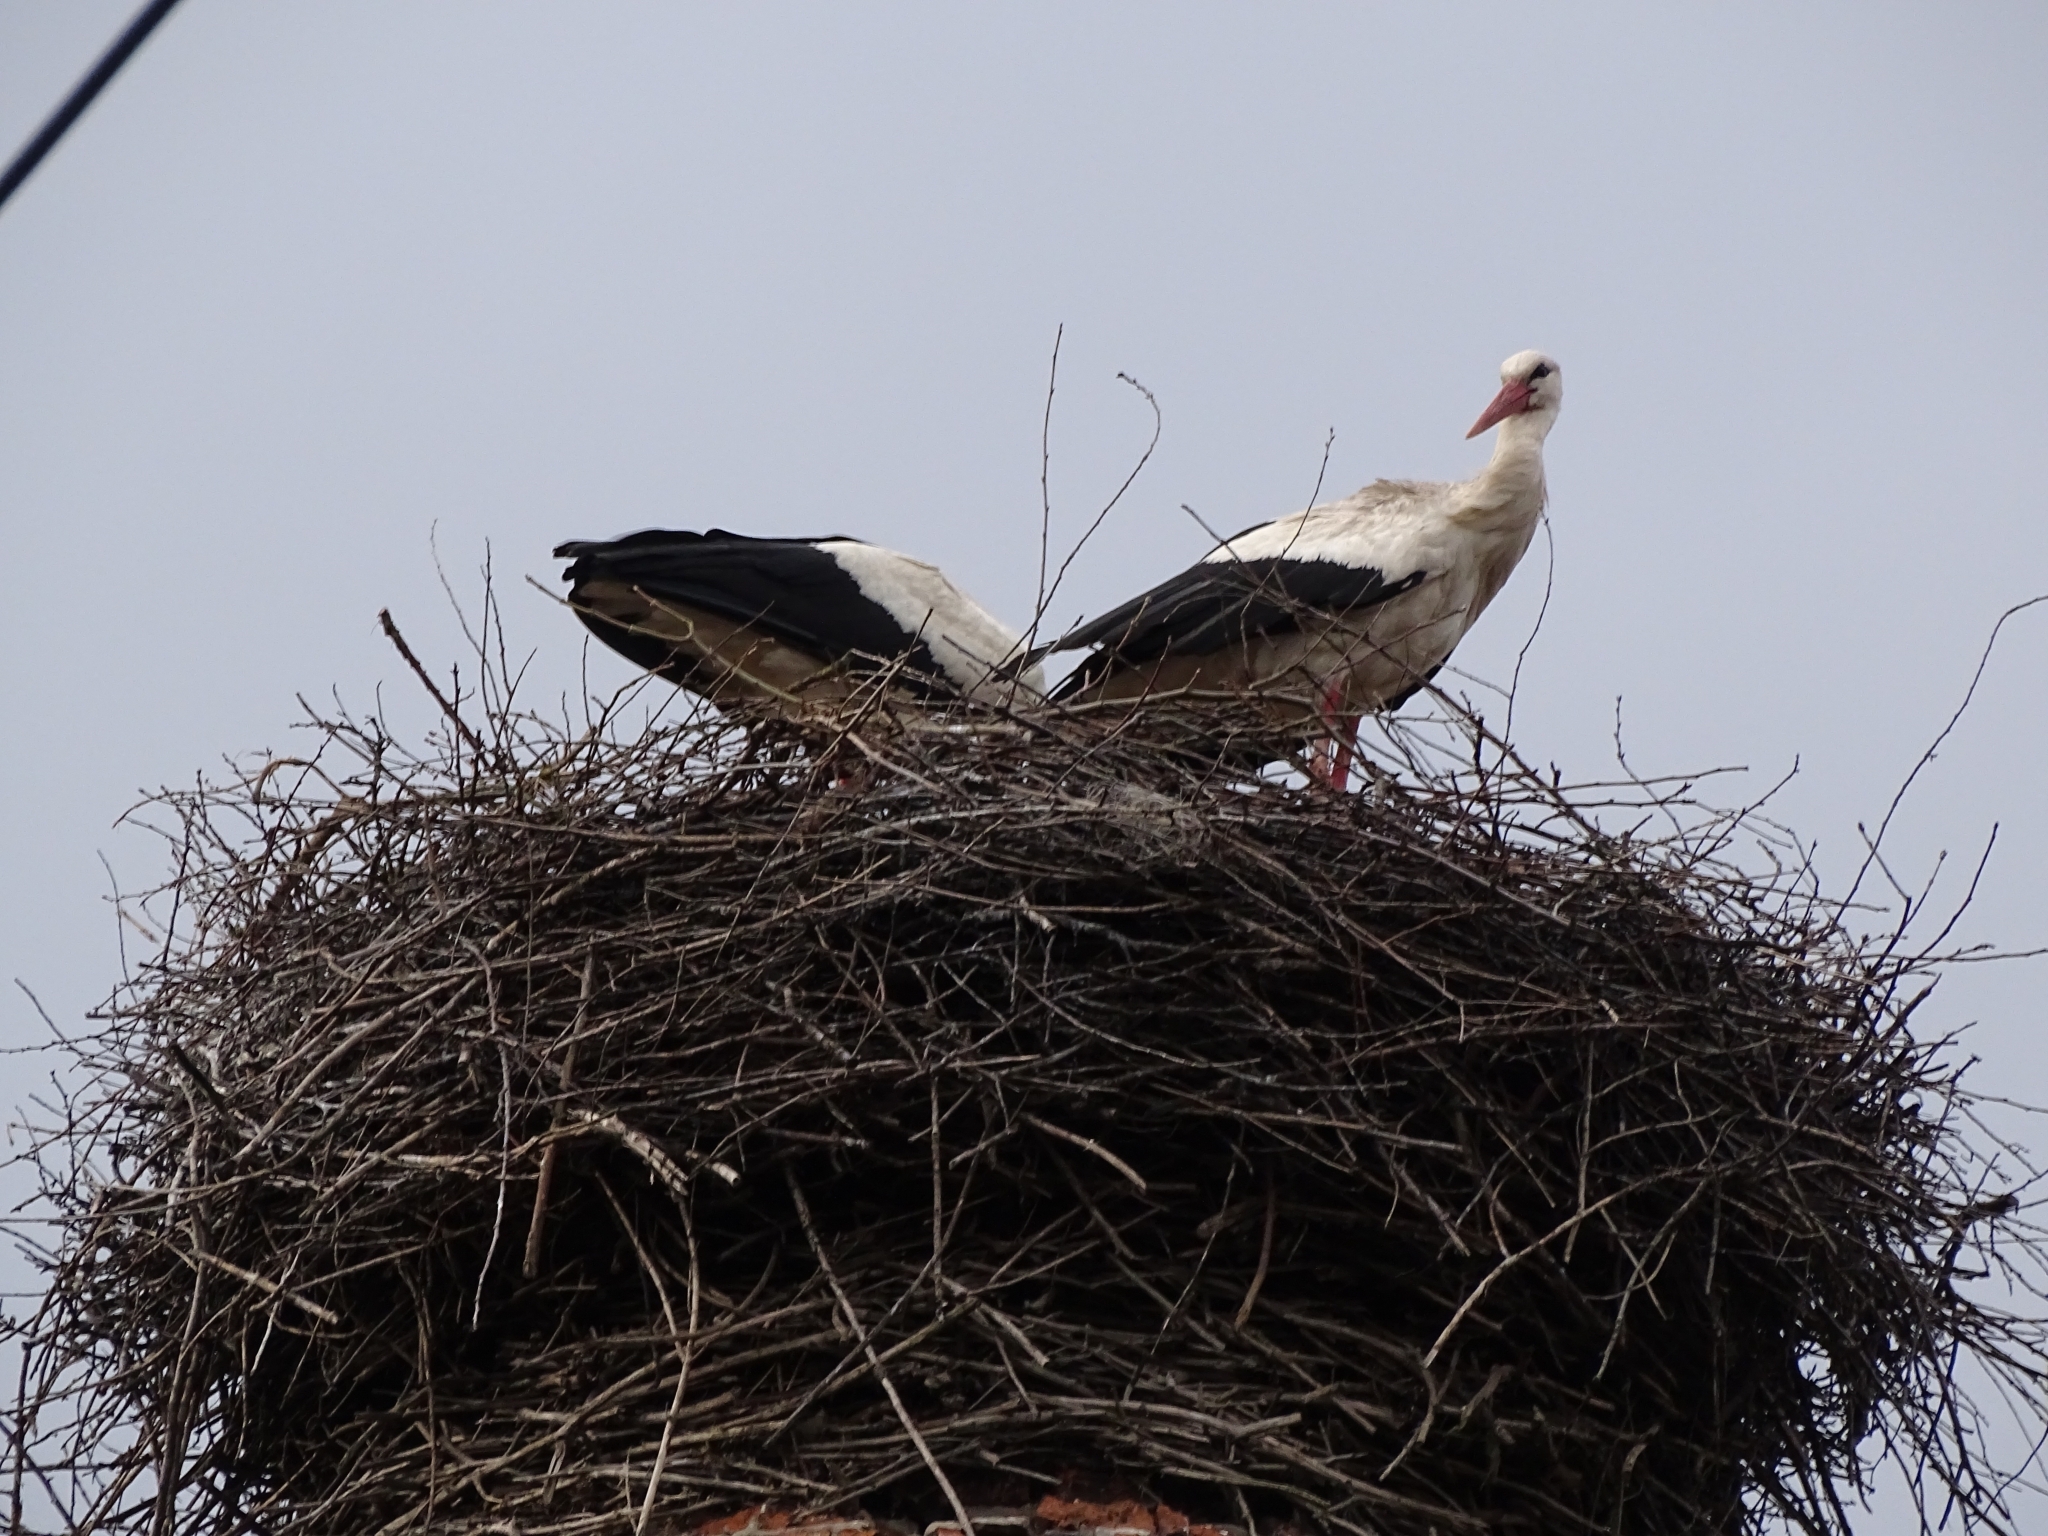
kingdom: Animalia
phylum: Chordata
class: Aves
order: Ciconiiformes
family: Ciconiidae
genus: Ciconia
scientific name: Ciconia ciconia
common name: White stork
